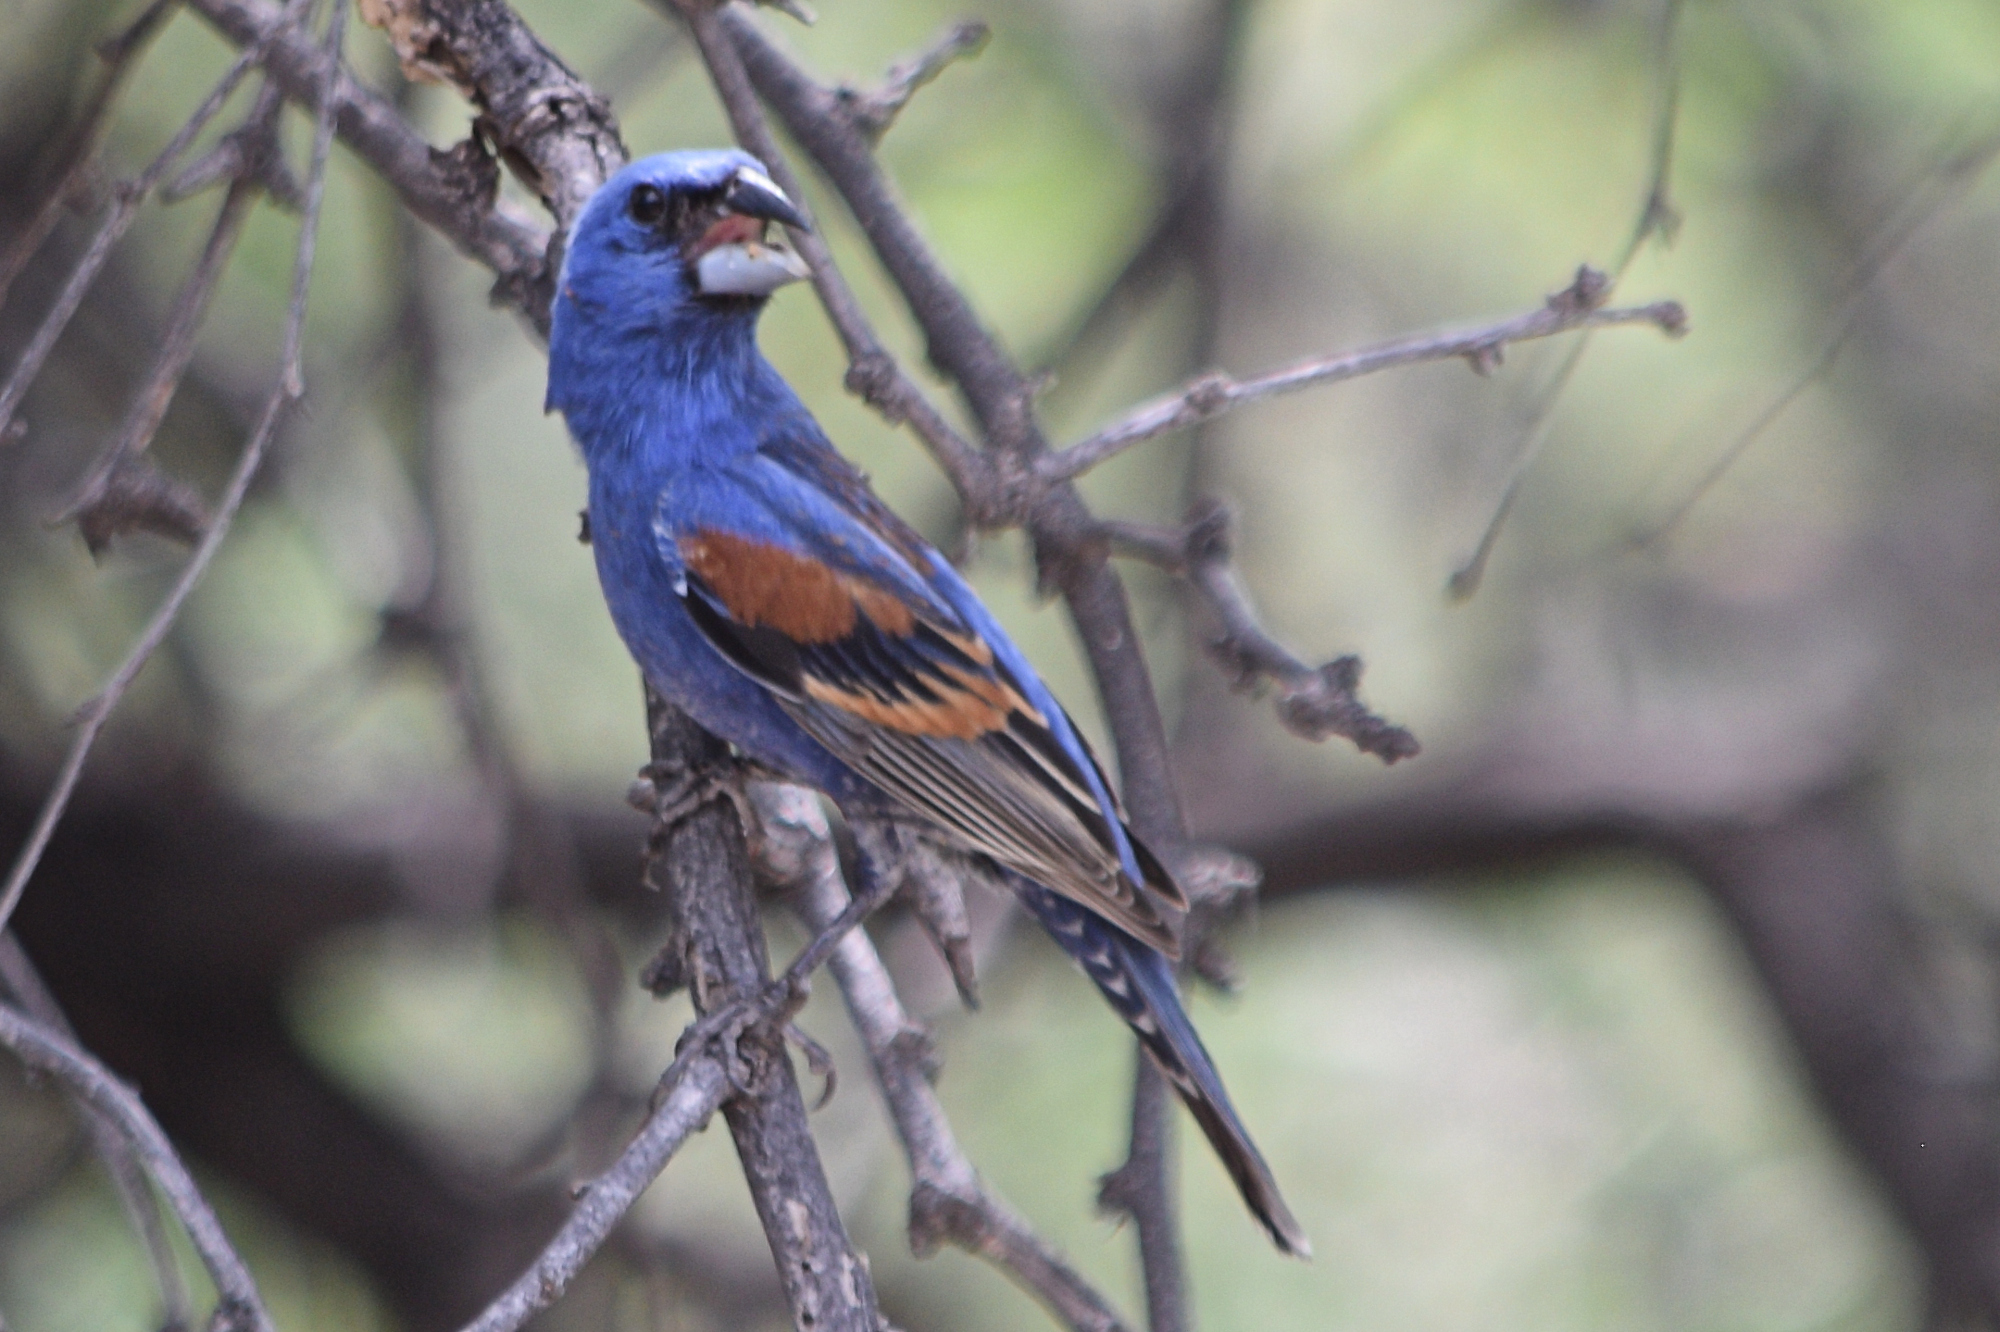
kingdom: Animalia
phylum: Chordata
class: Aves
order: Passeriformes
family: Cardinalidae
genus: Passerina
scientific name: Passerina caerulea
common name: Blue grosbeak
